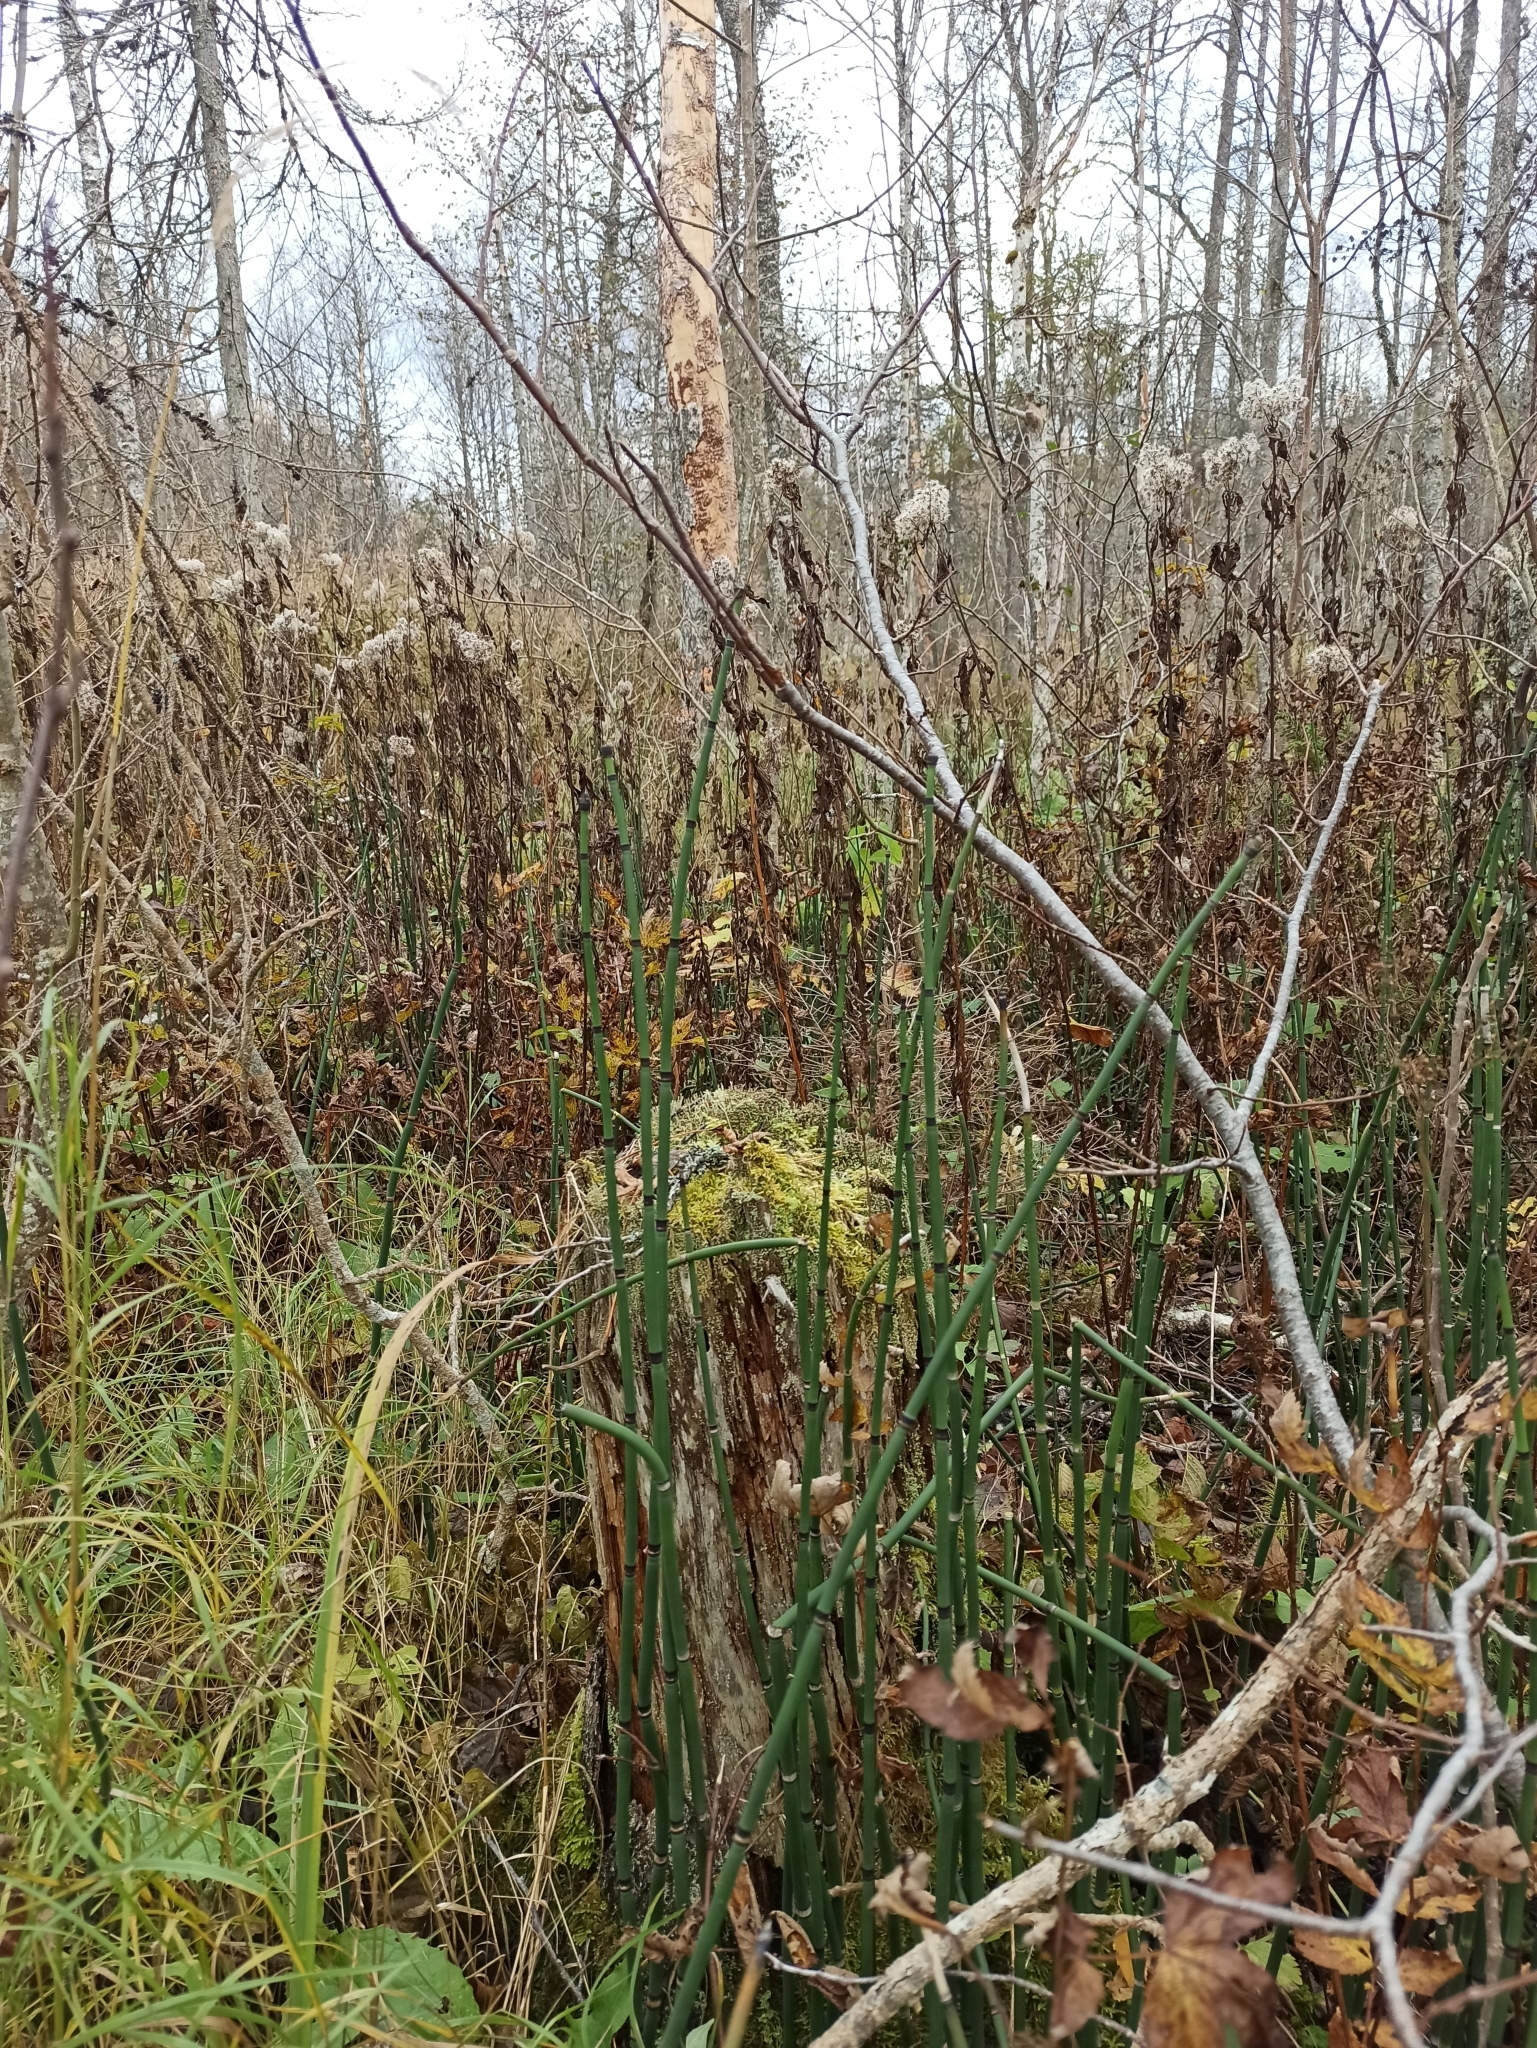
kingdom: Plantae
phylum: Tracheophyta
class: Polypodiopsida
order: Equisetales
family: Equisetaceae
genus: Equisetum
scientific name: Equisetum hyemale
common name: Rough horsetail
